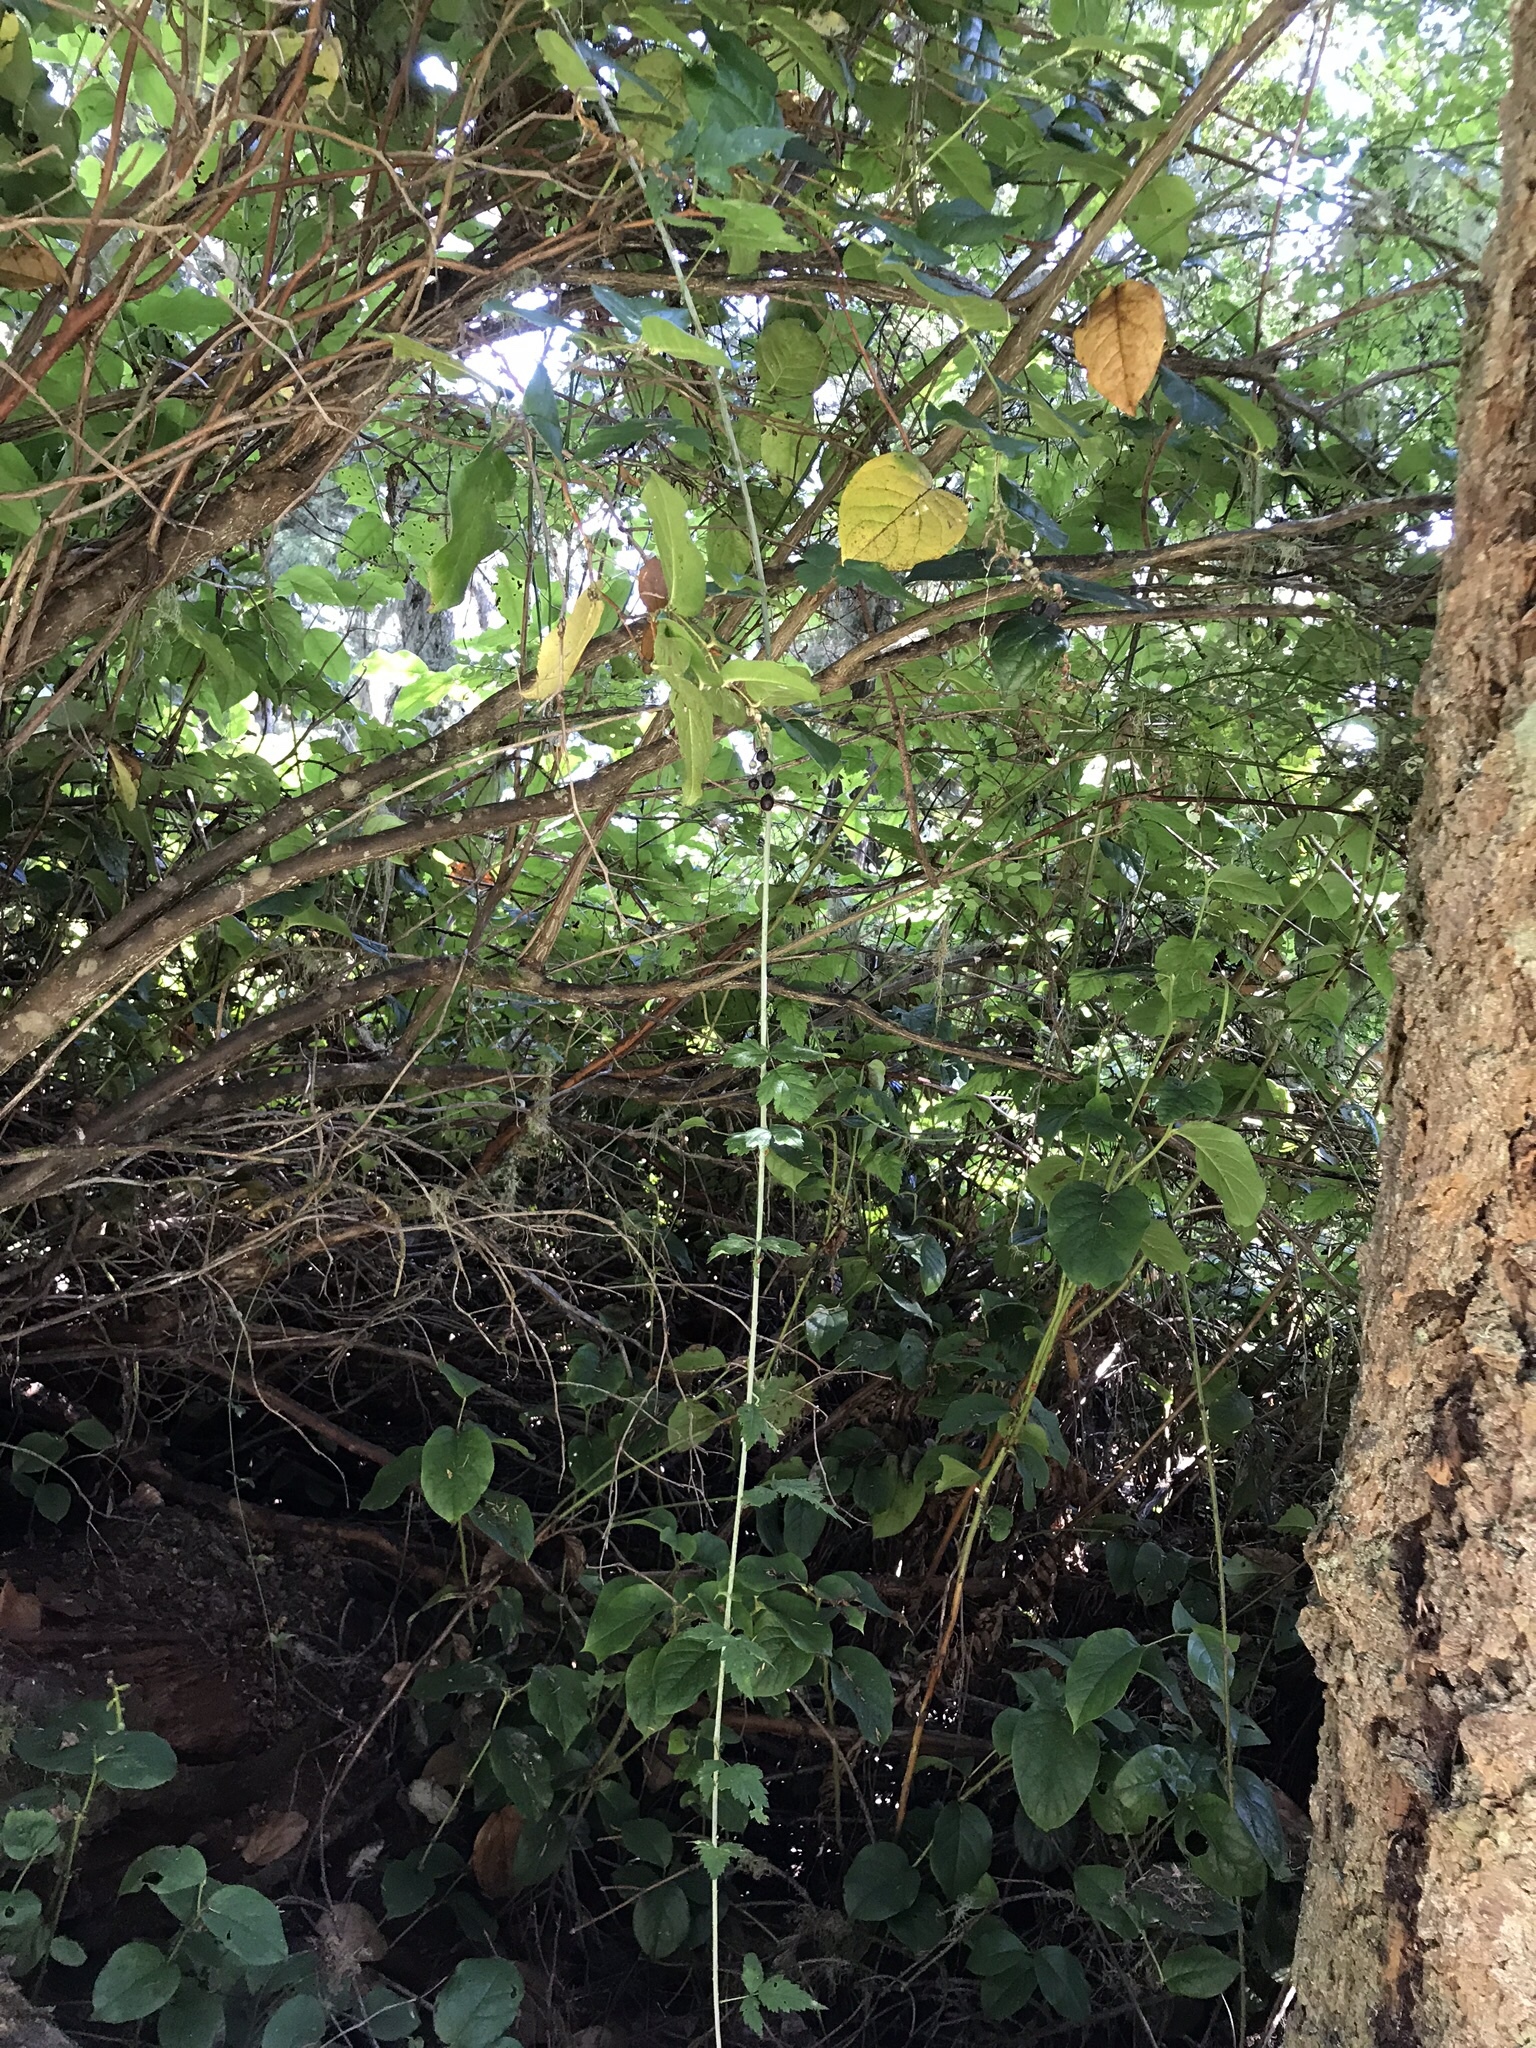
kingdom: Plantae
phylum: Tracheophyta
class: Magnoliopsida
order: Rosales
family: Rosaceae
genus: Rubus
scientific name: Rubus ursinus
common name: Pacific blackberry
